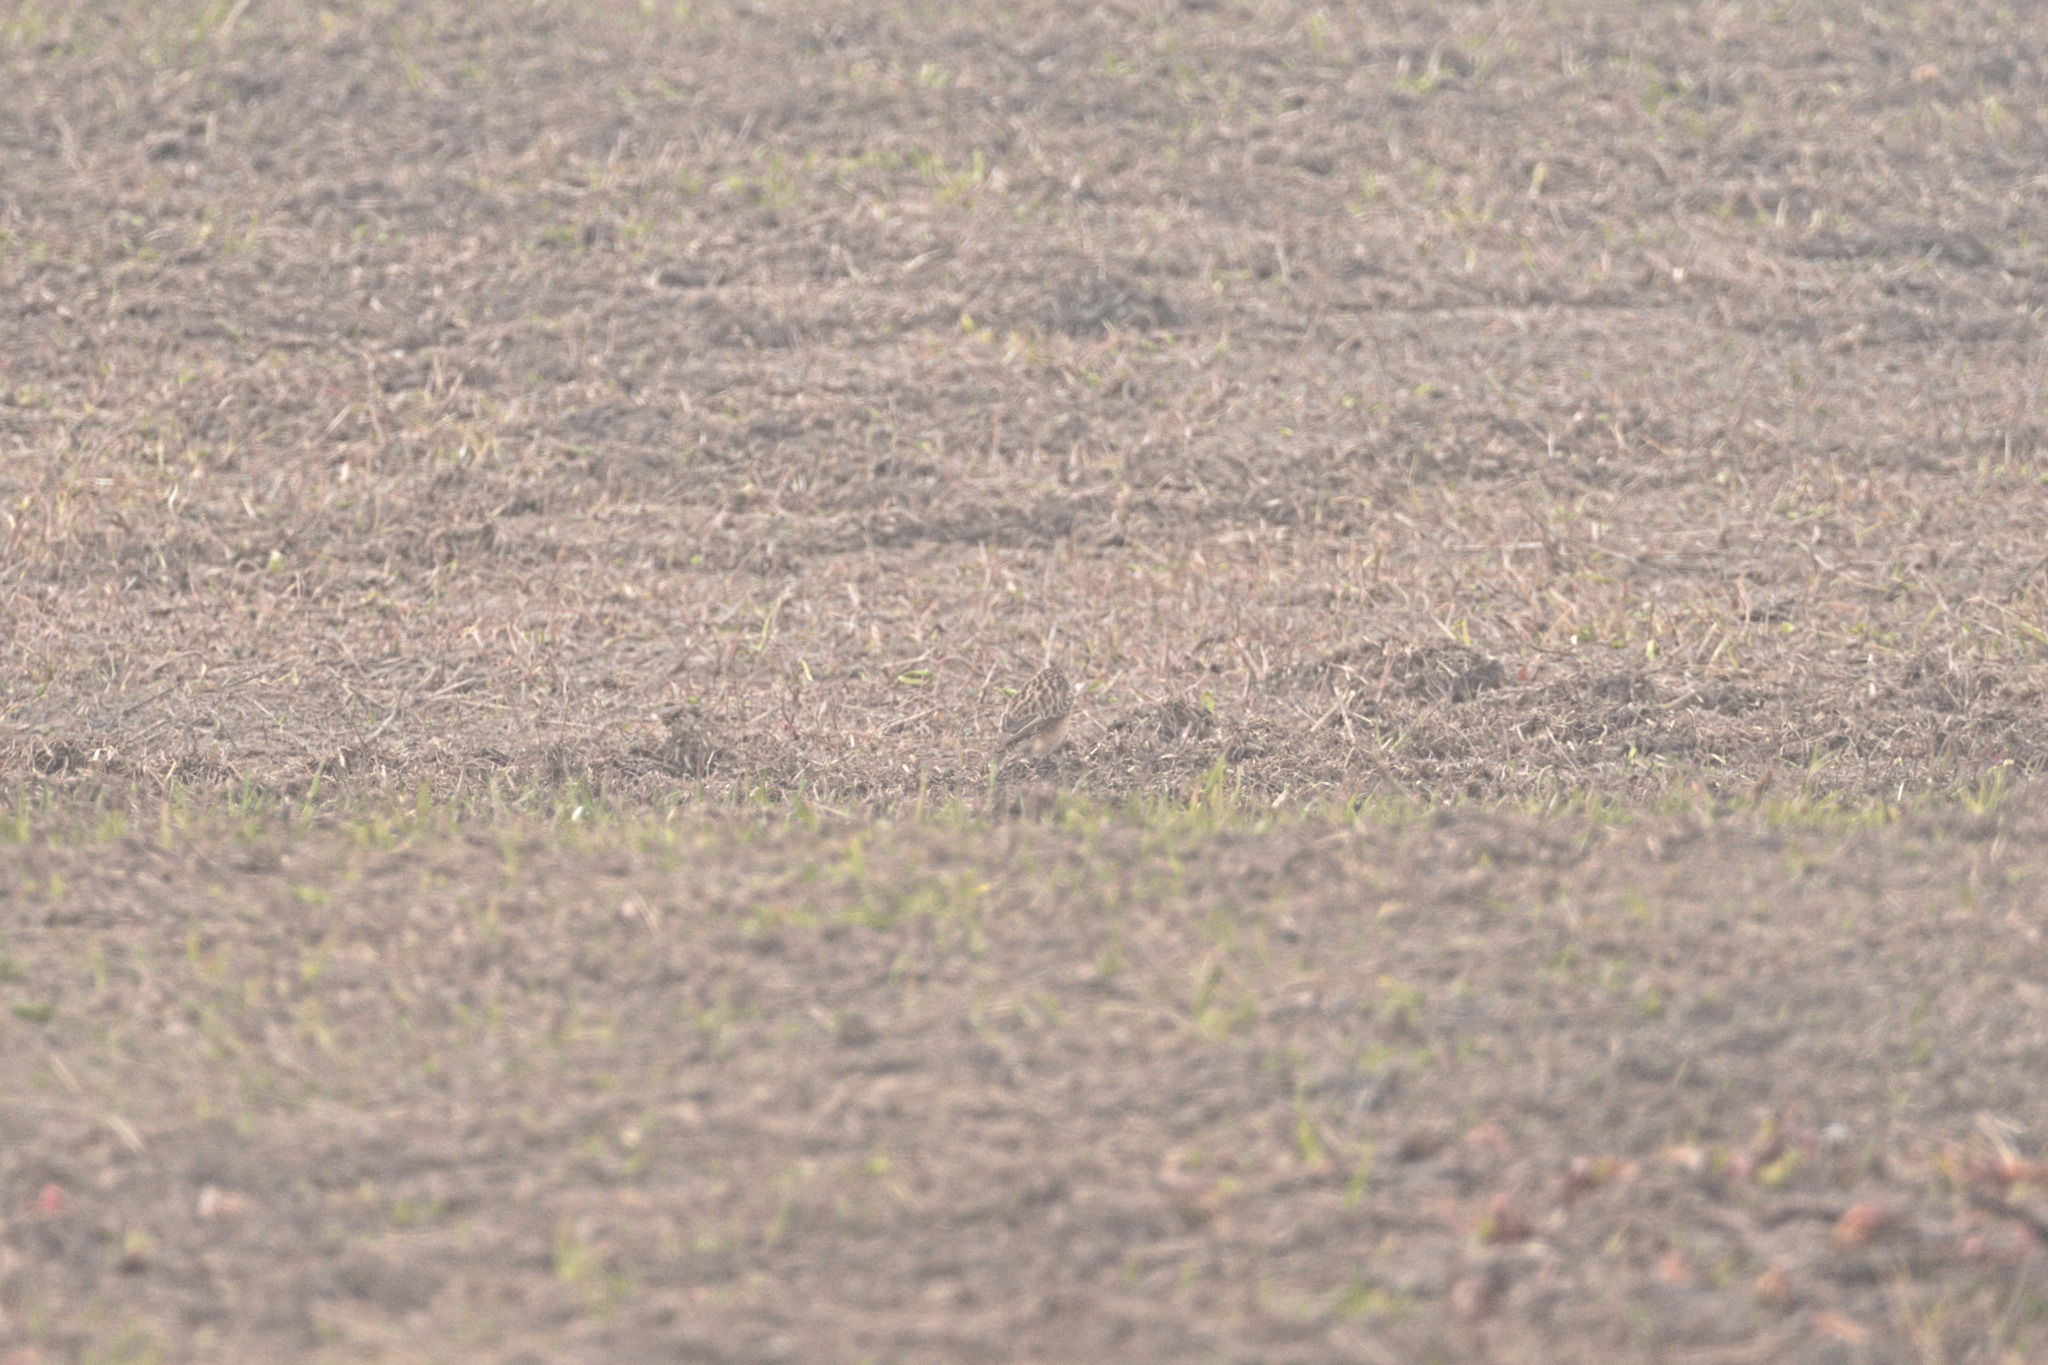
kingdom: Animalia
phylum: Chordata
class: Aves
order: Passeriformes
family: Muscicapidae
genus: Saxicola
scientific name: Saxicola rubetra
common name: Whinchat
